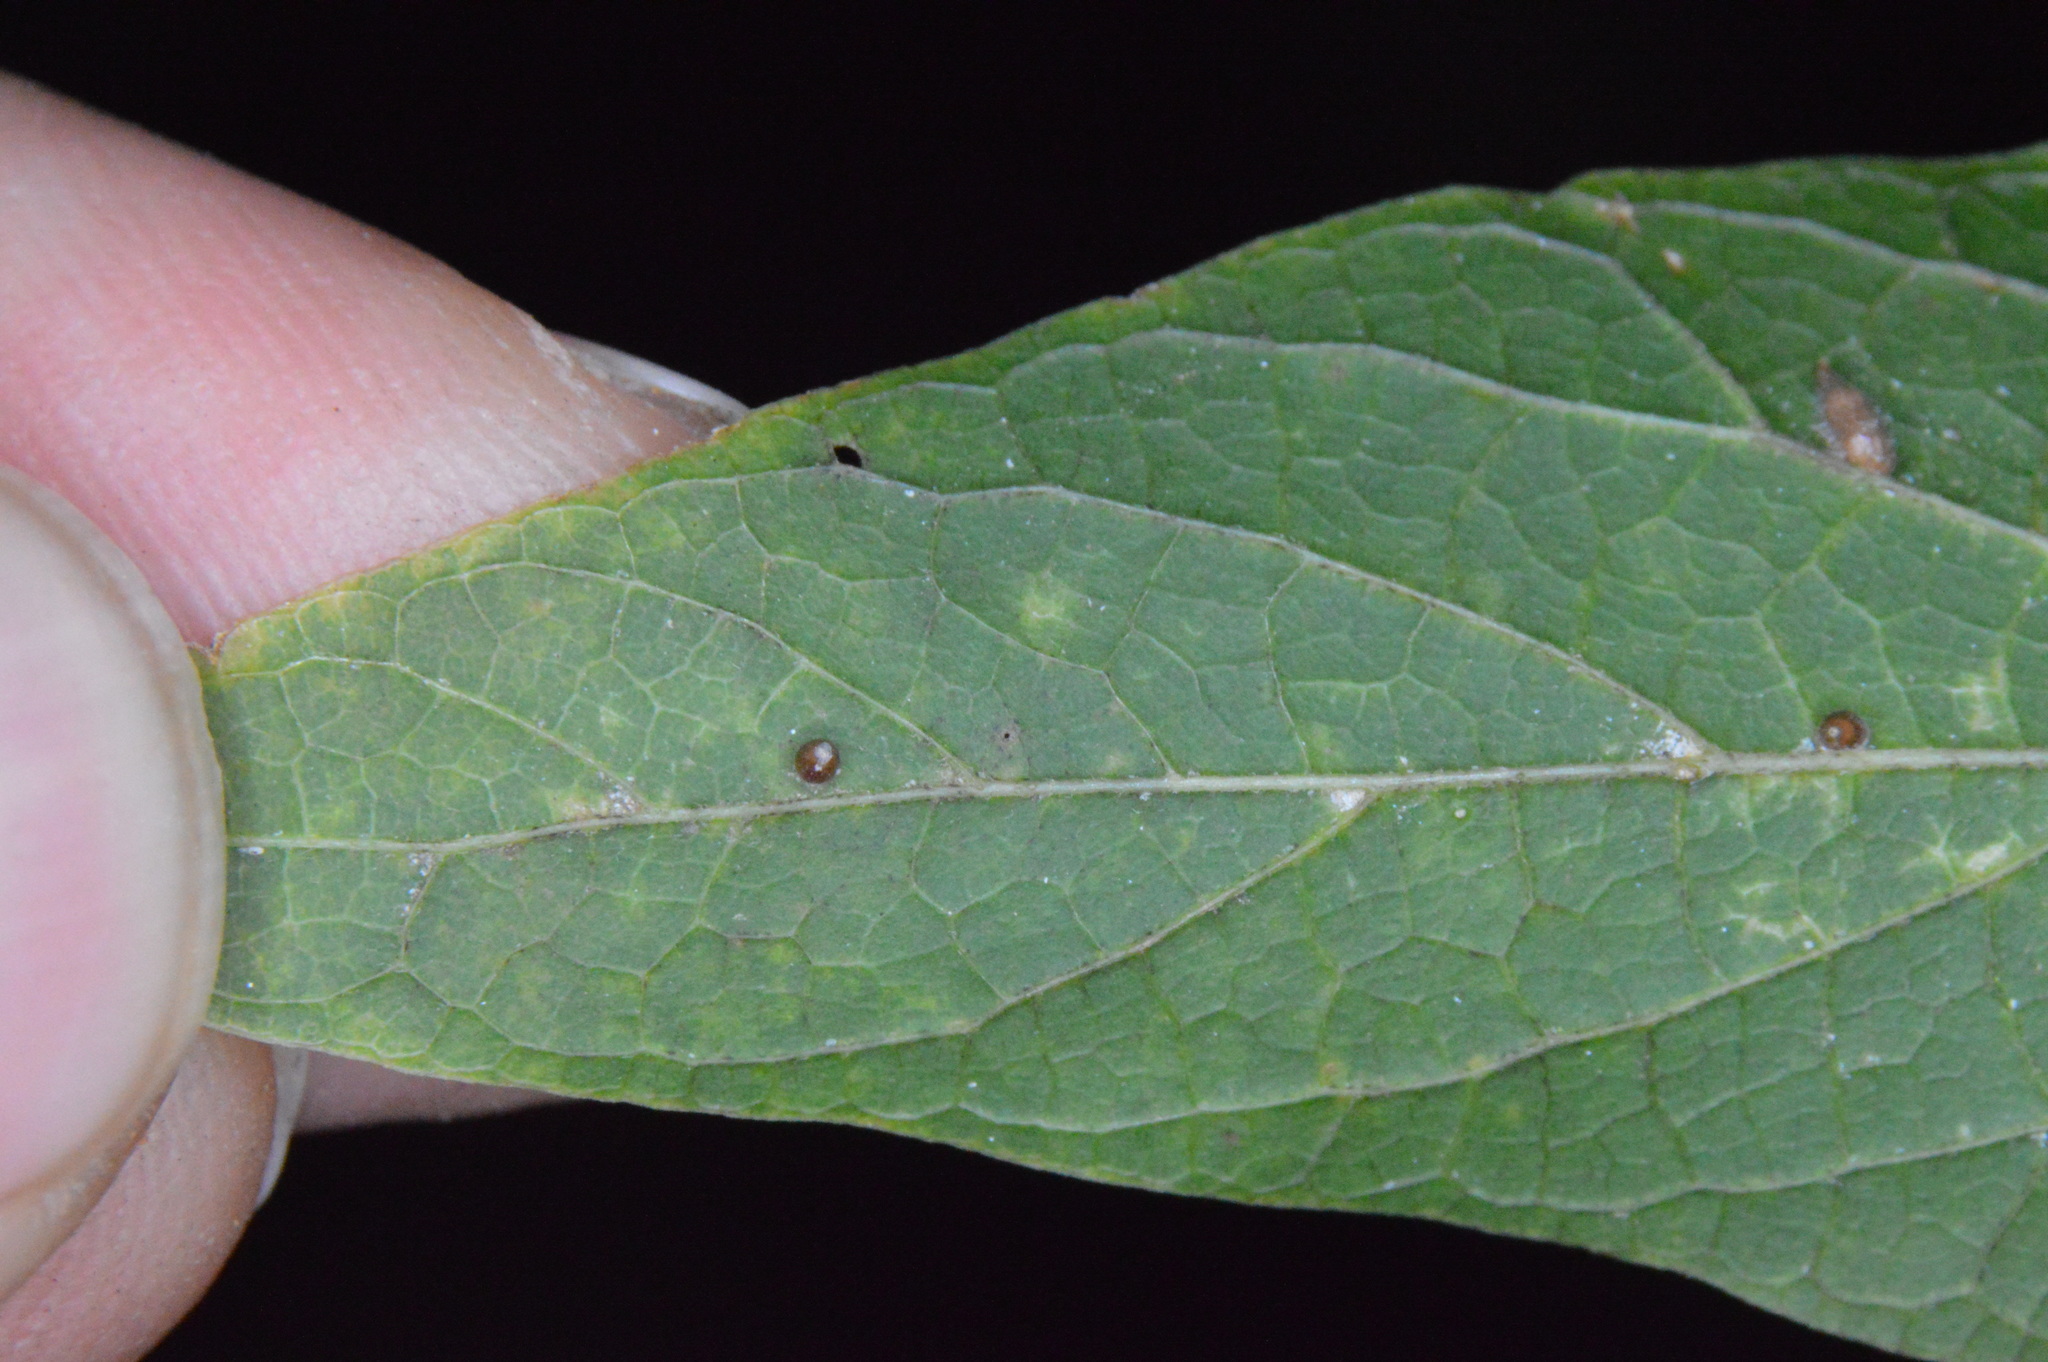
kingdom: Animalia
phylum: Arthropoda
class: Insecta
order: Diptera
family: Cecidomyiidae
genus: Celticecis
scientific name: Celticecis cupiformis
